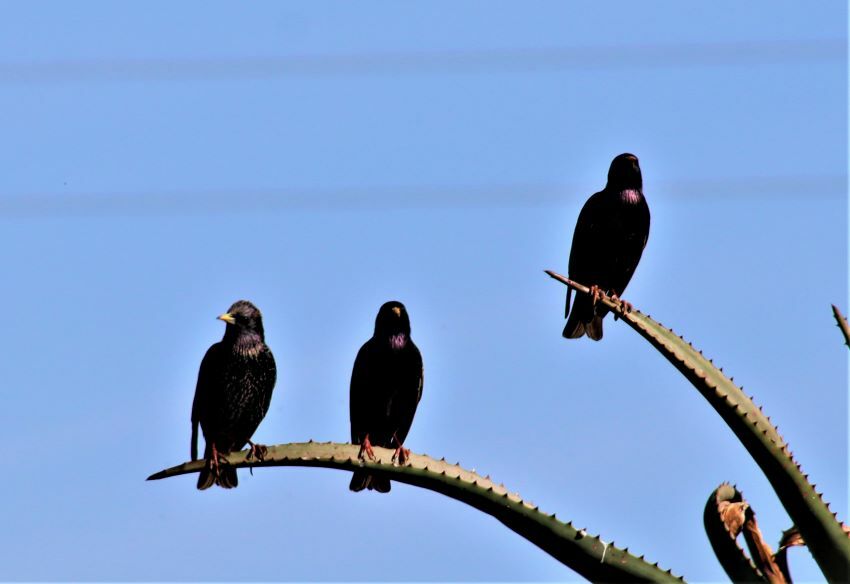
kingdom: Animalia
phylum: Chordata
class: Aves
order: Passeriformes
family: Sturnidae
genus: Sturnus
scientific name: Sturnus vulgaris
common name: Common starling
